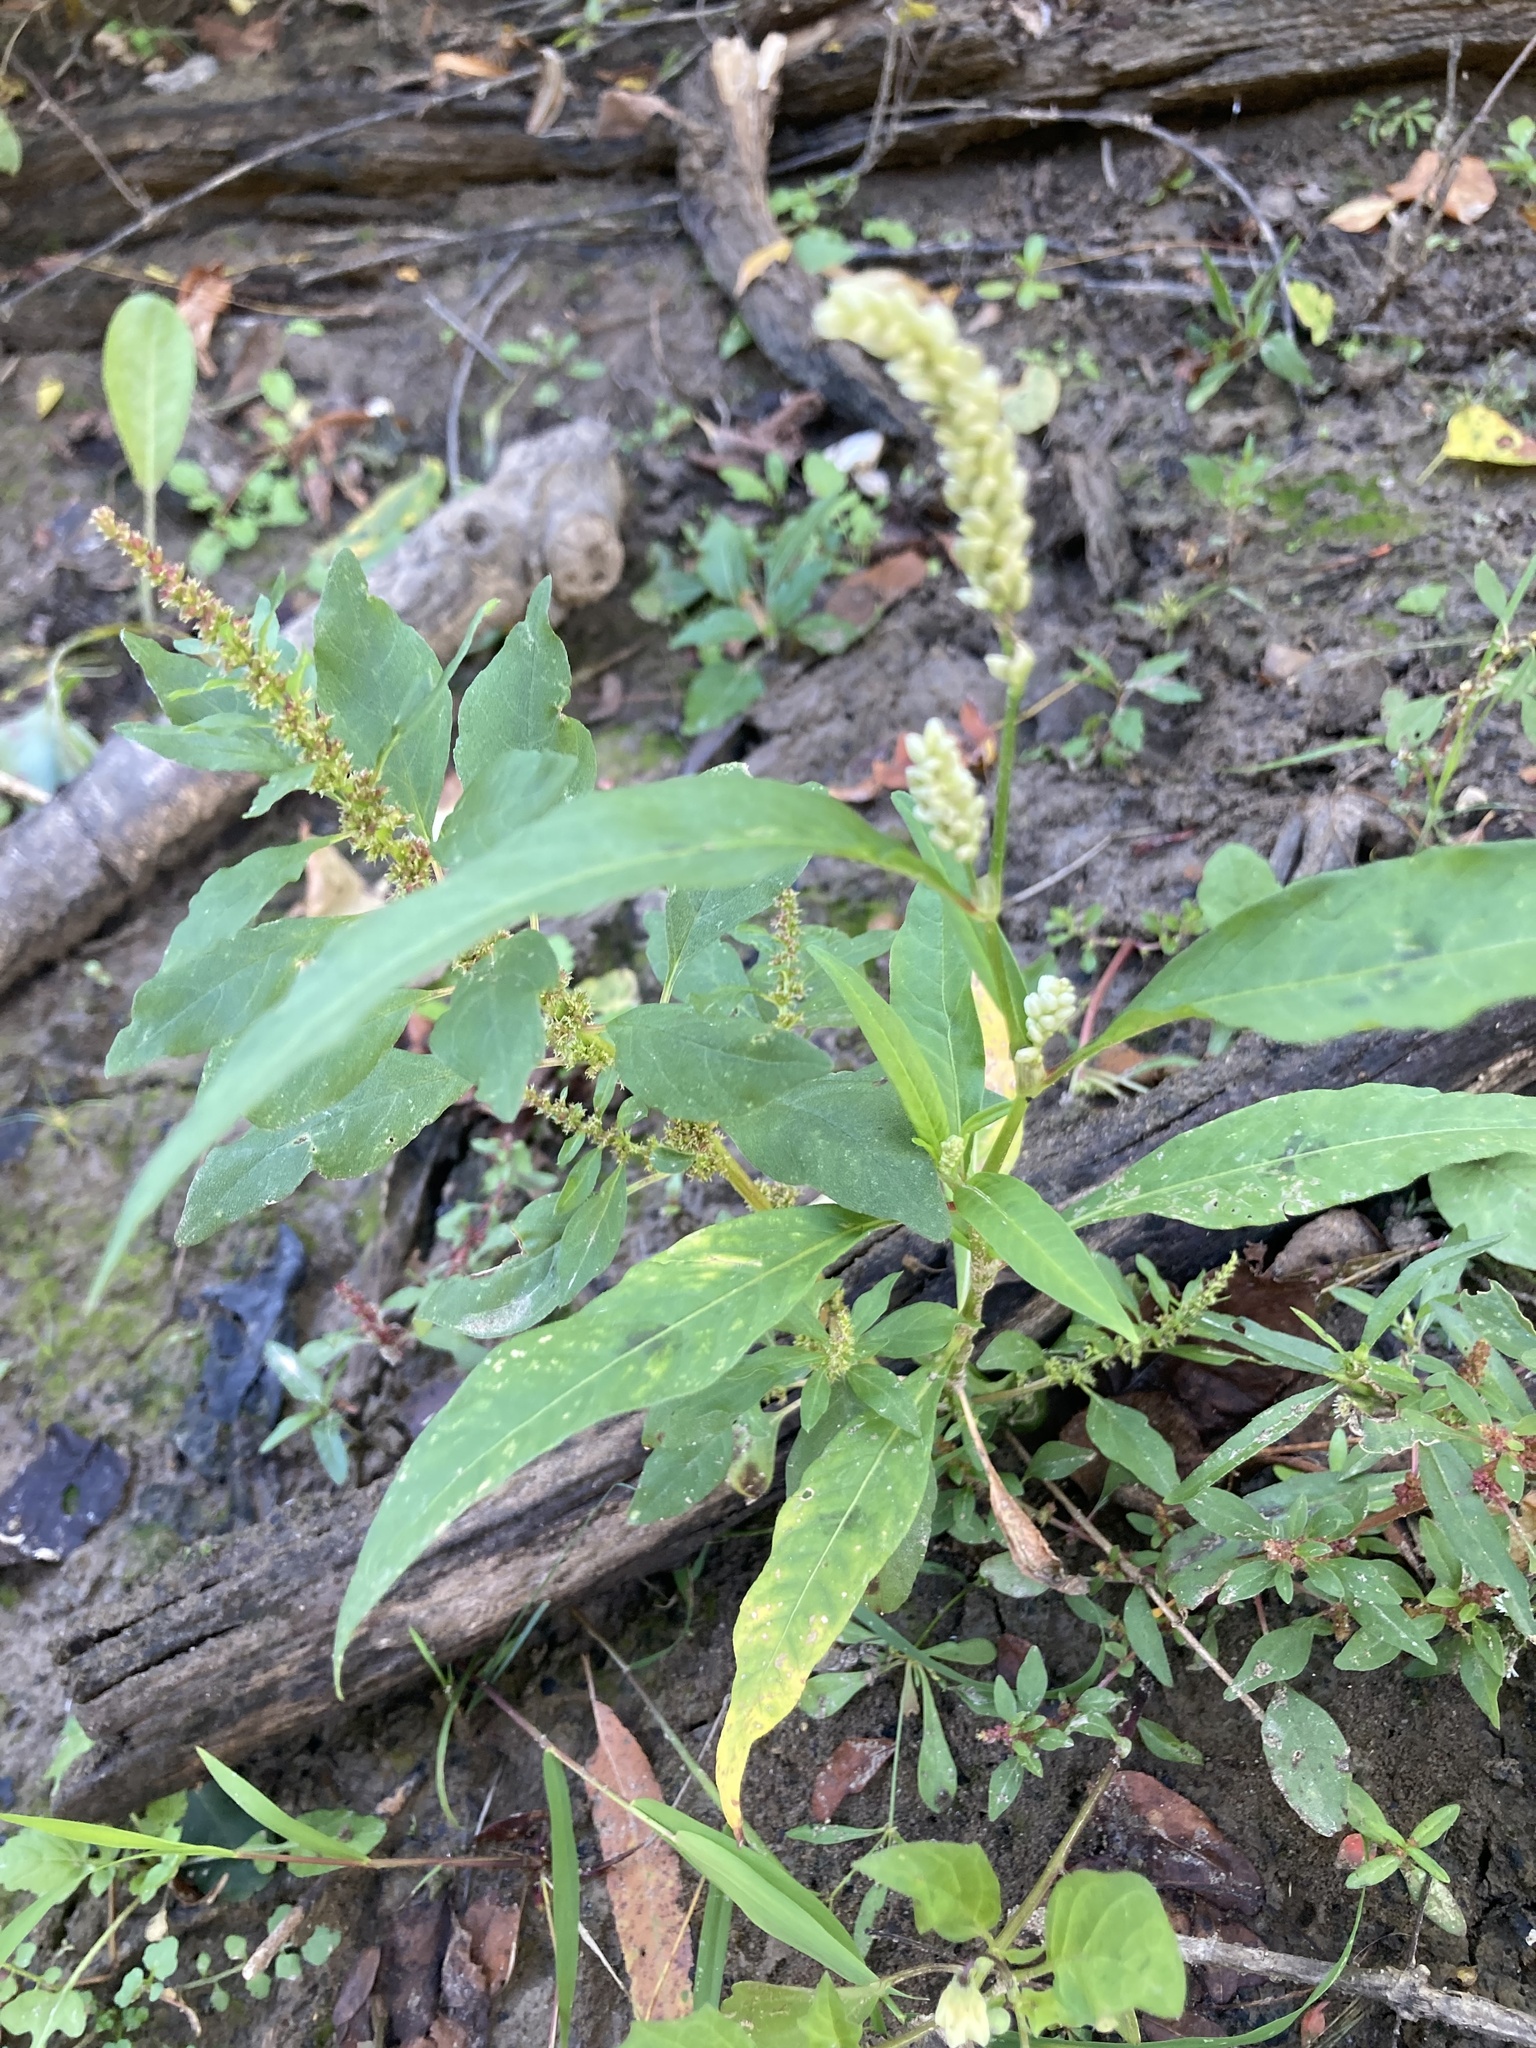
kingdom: Plantae
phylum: Tracheophyta
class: Magnoliopsida
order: Caryophyllales
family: Polygonaceae
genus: Persicaria
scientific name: Persicaria lapathifolia
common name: Curlytop knotweed
